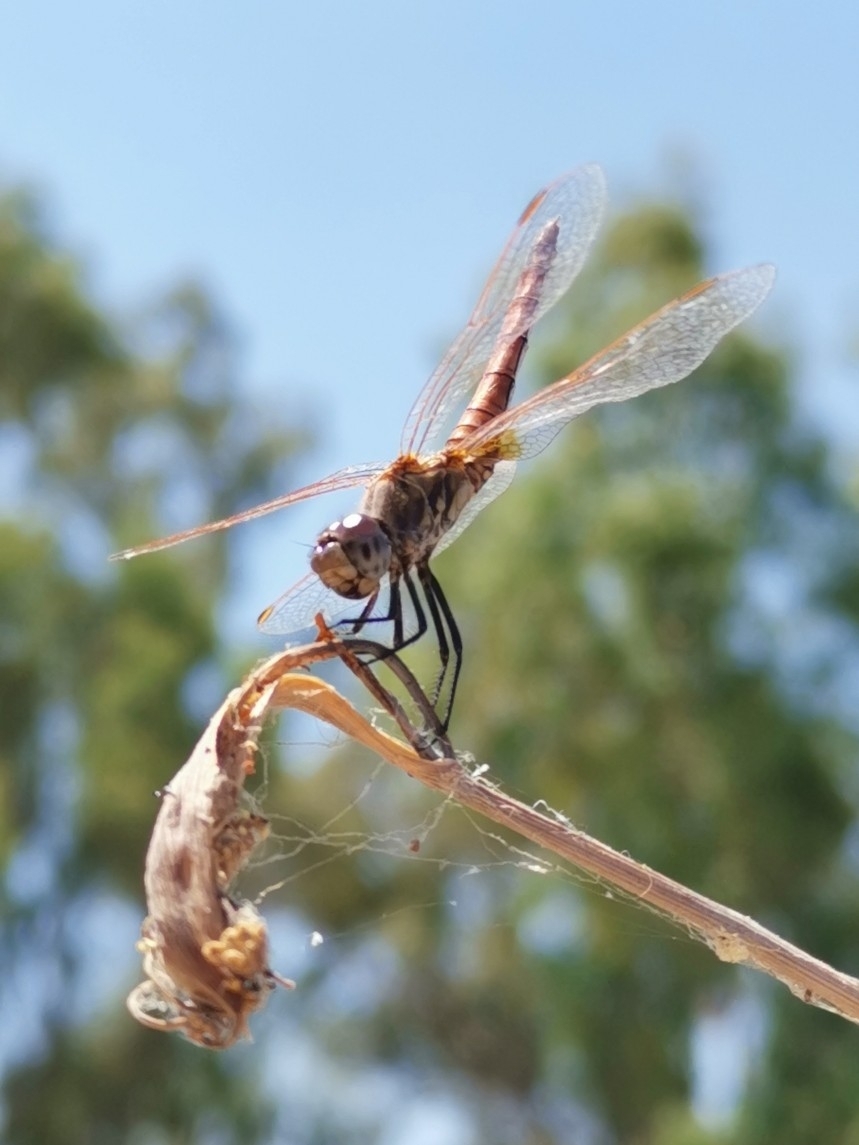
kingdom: Animalia
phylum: Arthropoda
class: Insecta
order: Odonata
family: Libellulidae
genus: Trithemis
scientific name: Trithemis annulata
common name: Violet dropwing
